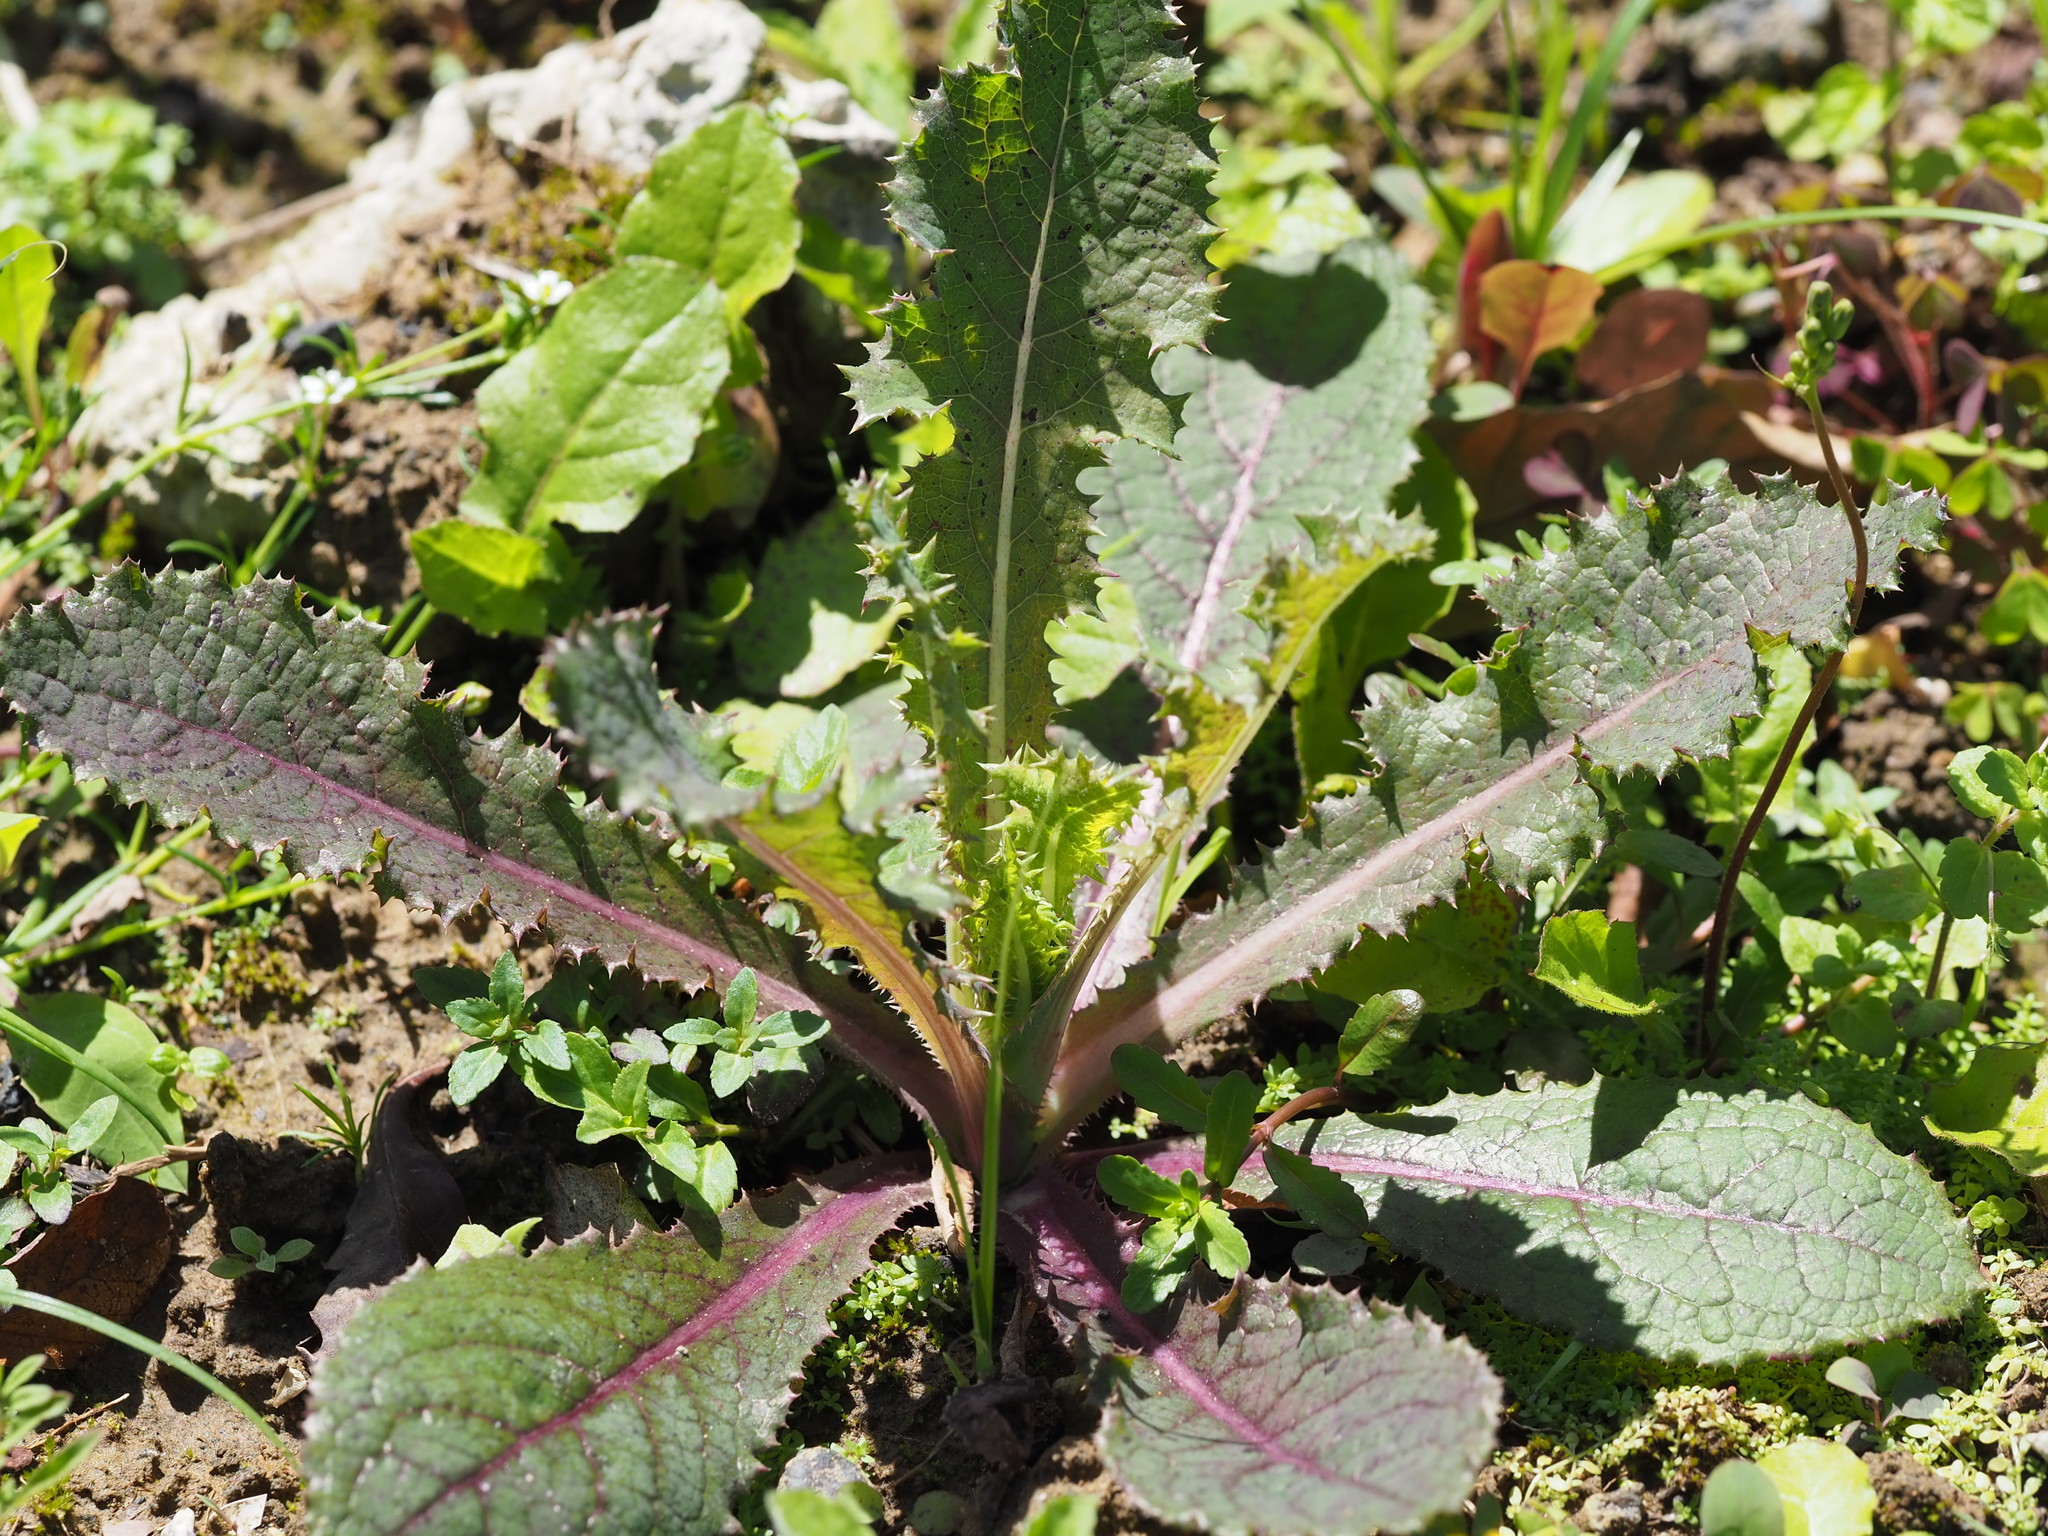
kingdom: Plantae
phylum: Tracheophyta
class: Magnoliopsida
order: Asterales
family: Asteraceae
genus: Sonchus
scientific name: Sonchus asper
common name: Prickly sow-thistle
